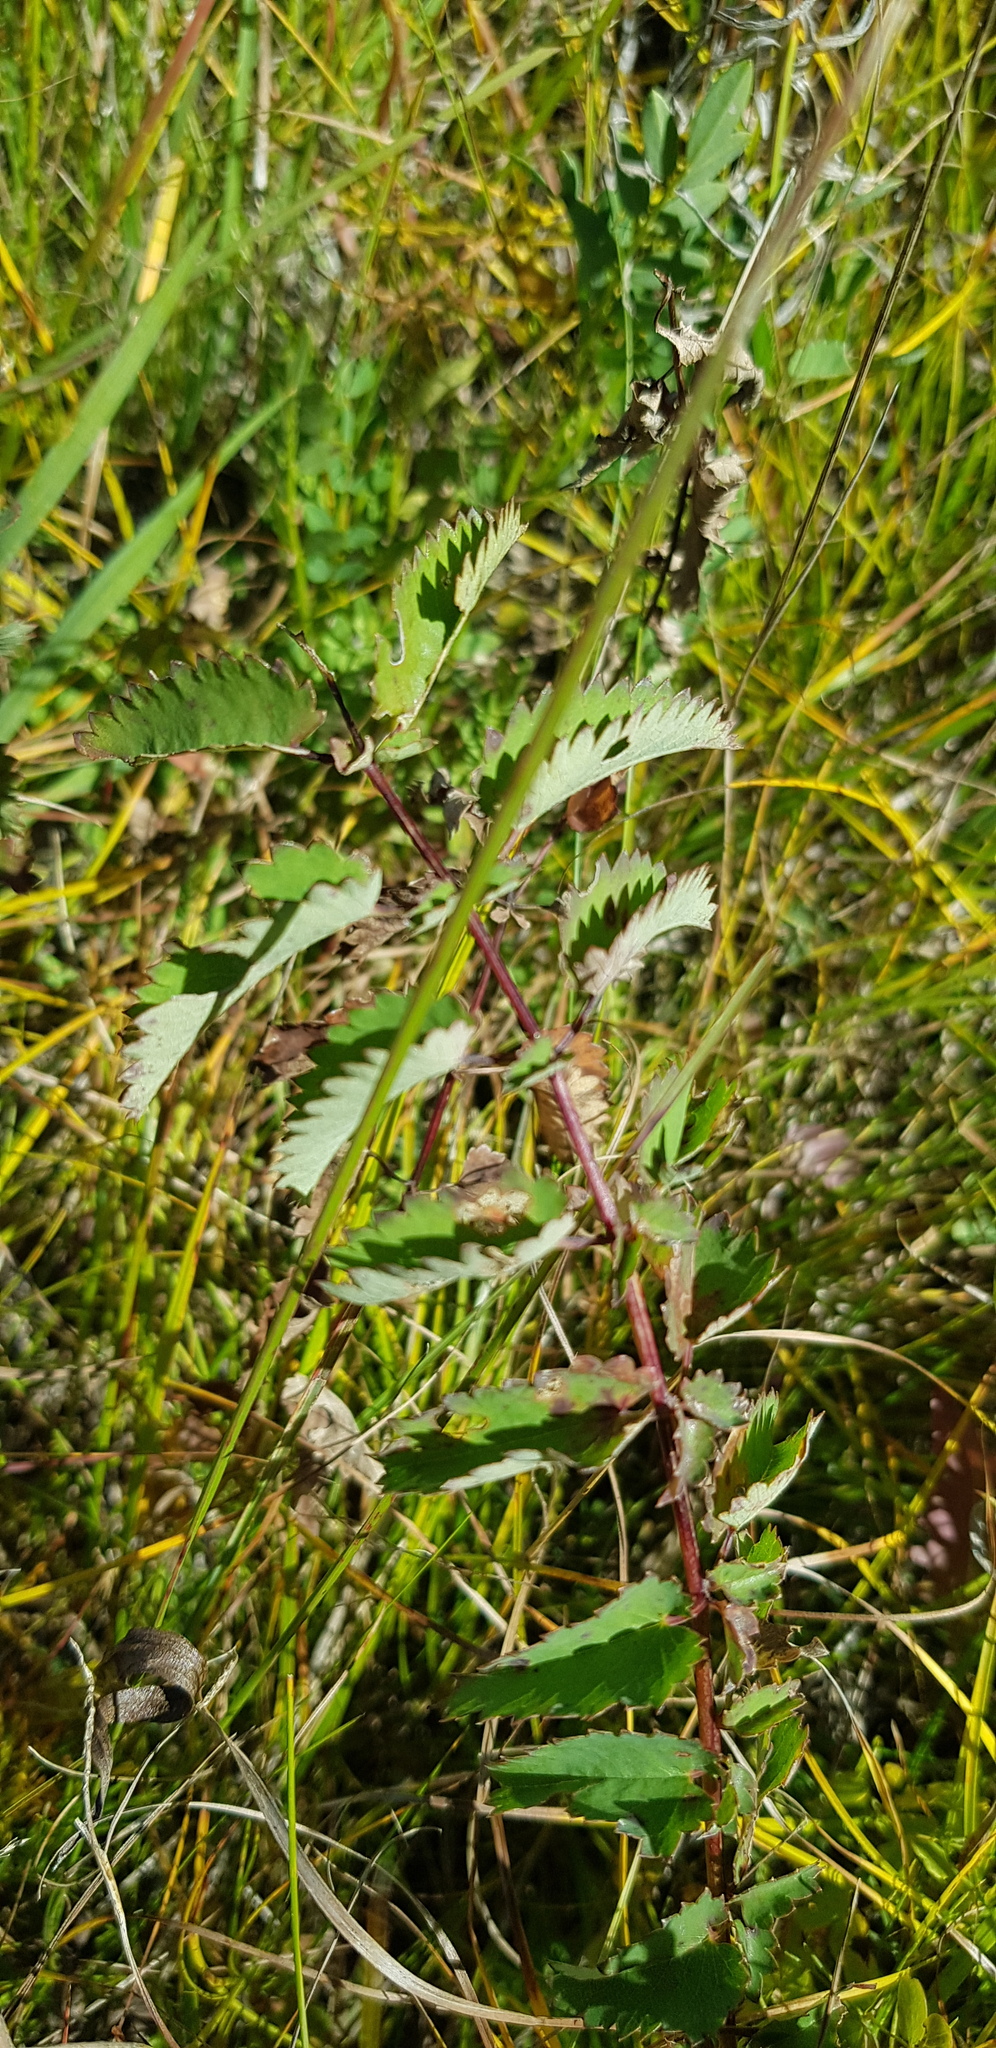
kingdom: Plantae
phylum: Tracheophyta
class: Magnoliopsida
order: Rosales
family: Rosaceae
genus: Sanguisorba
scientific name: Sanguisorba officinalis
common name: Great burnet
